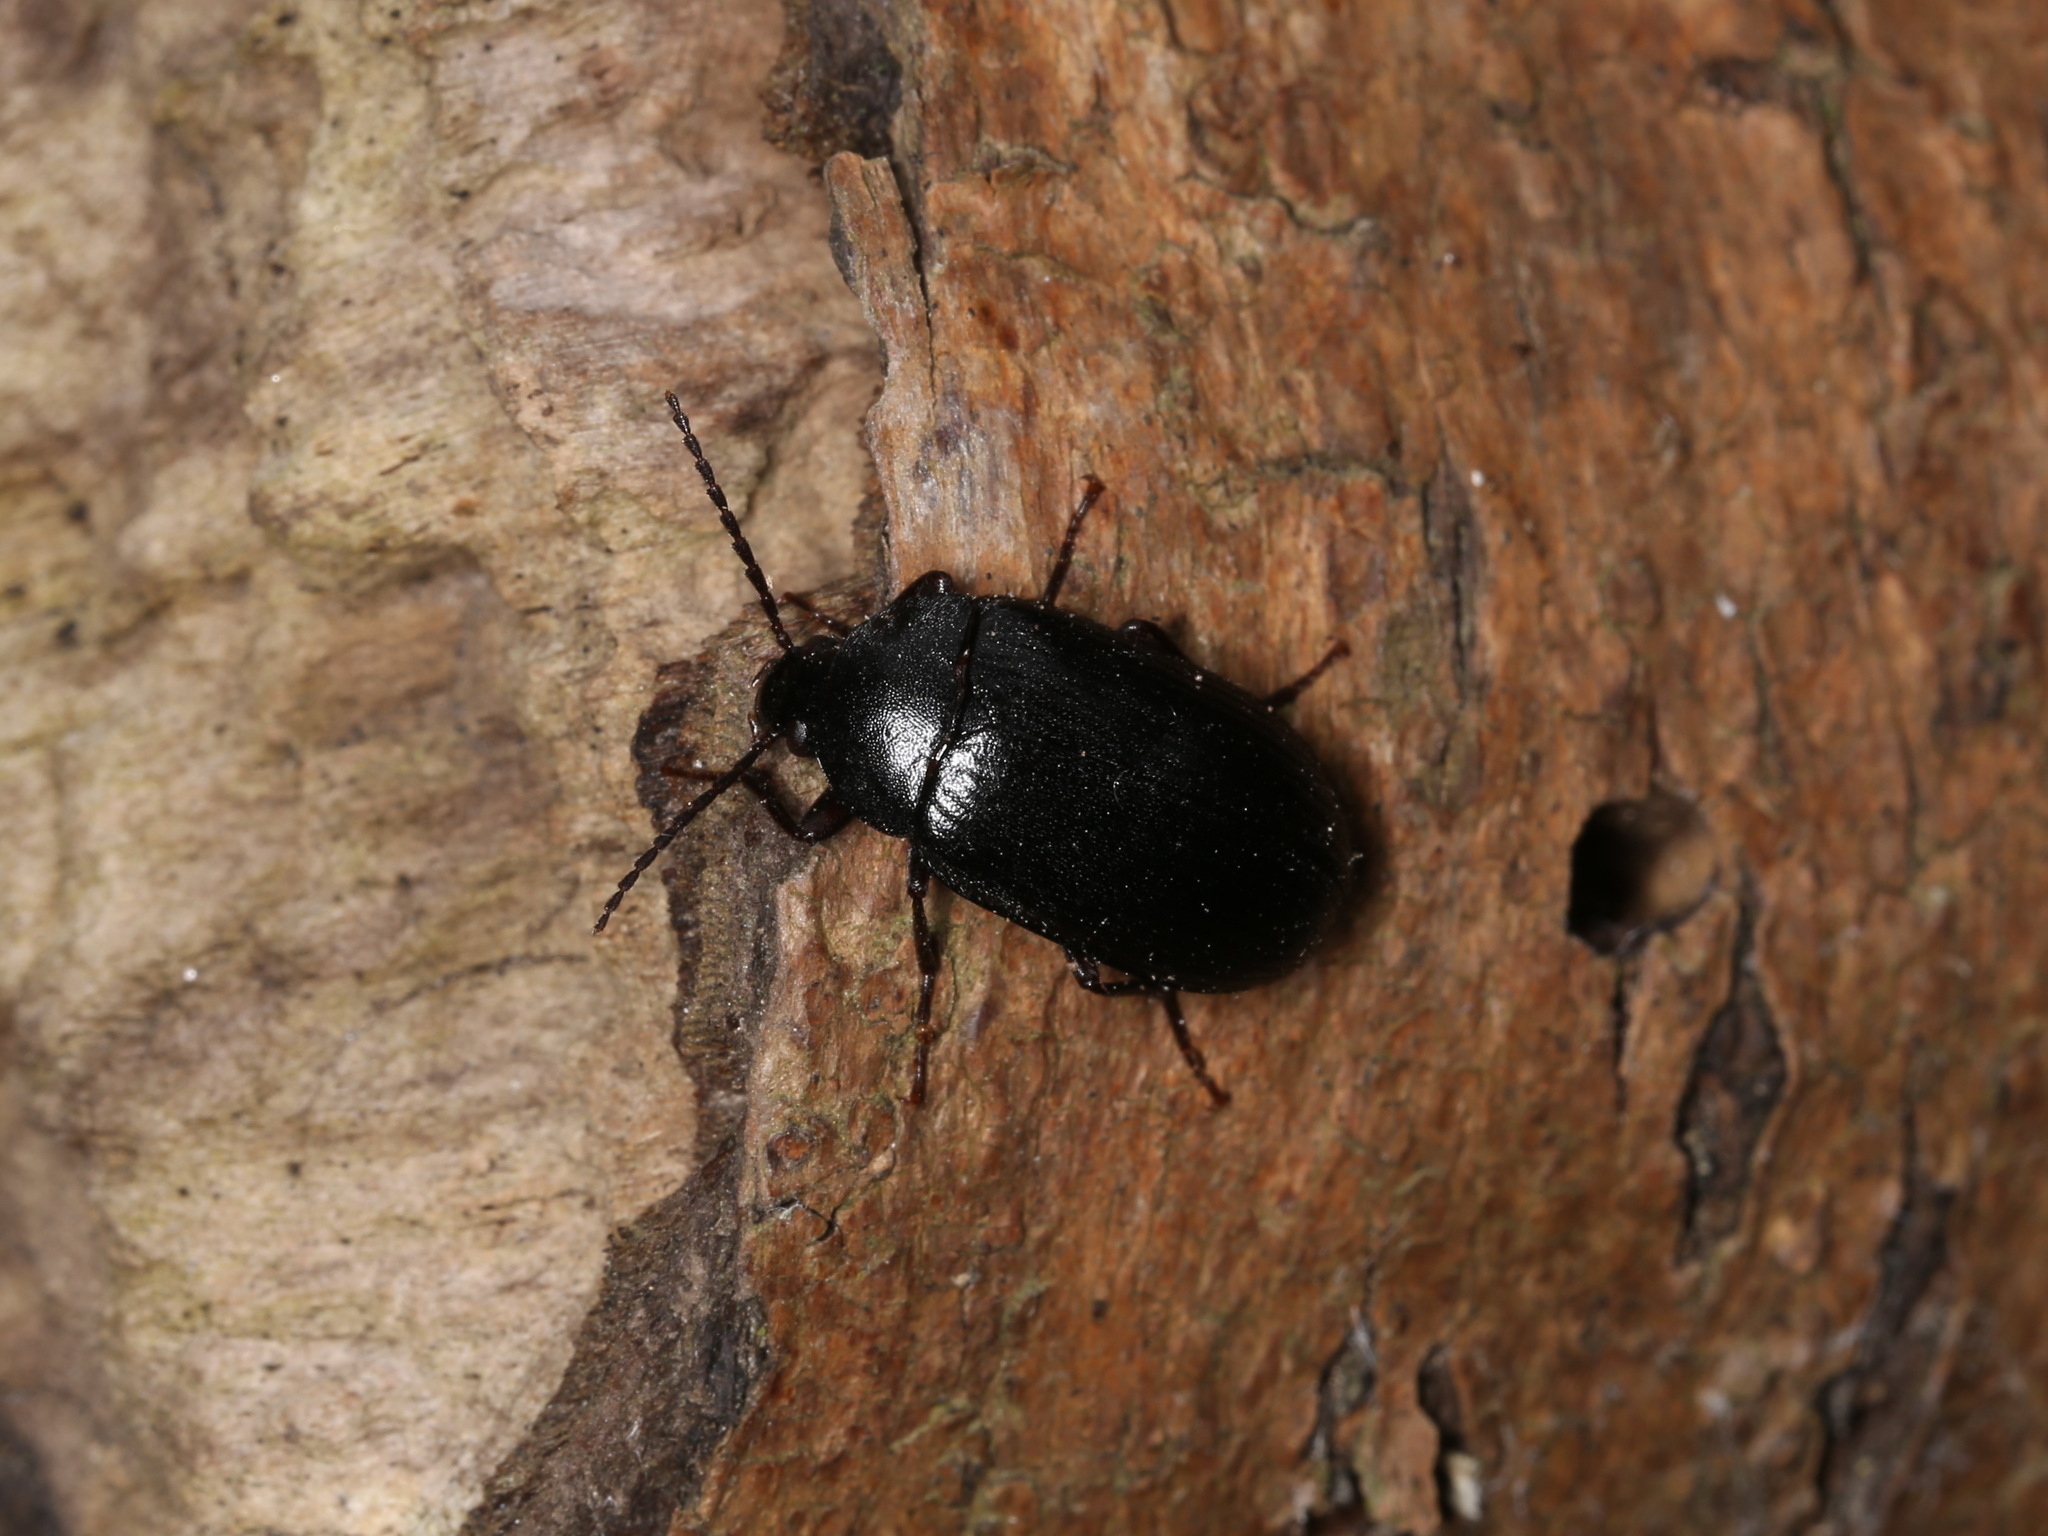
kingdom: Animalia
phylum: Arthropoda
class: Insecta
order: Coleoptera
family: Tenebrionidae
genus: Prionychus
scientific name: Prionychus ater
